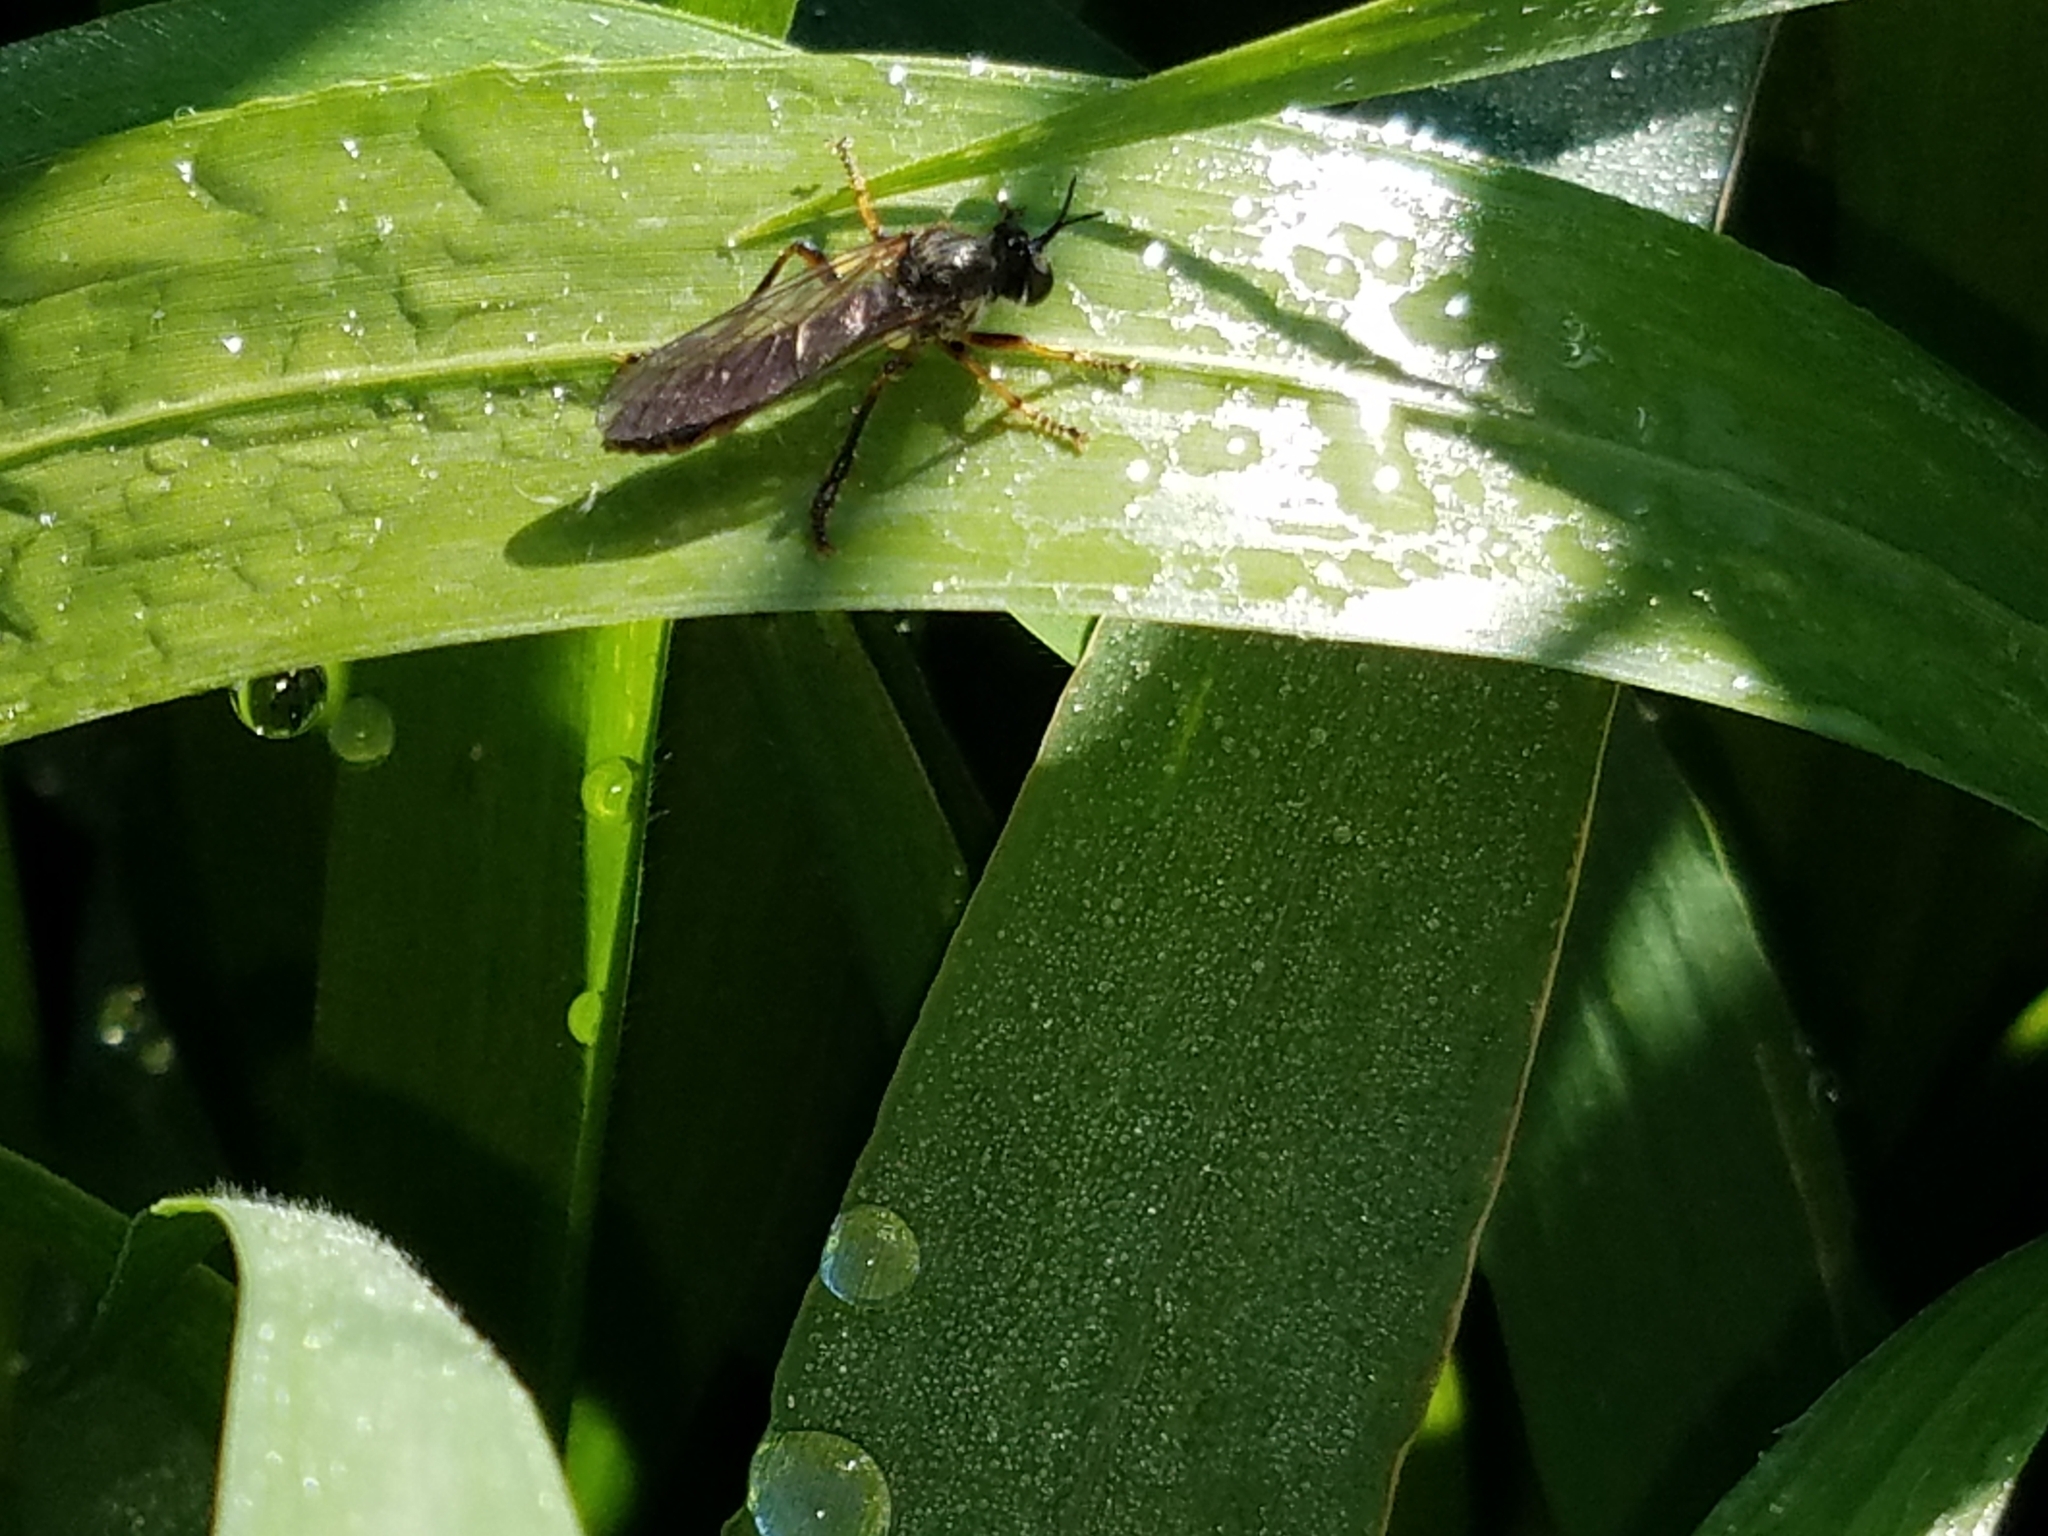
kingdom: Animalia
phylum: Arthropoda
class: Insecta
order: Diptera
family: Asilidae
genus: Dioctria
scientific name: Dioctria hyalipennis
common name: Stripe-legged robberfly
